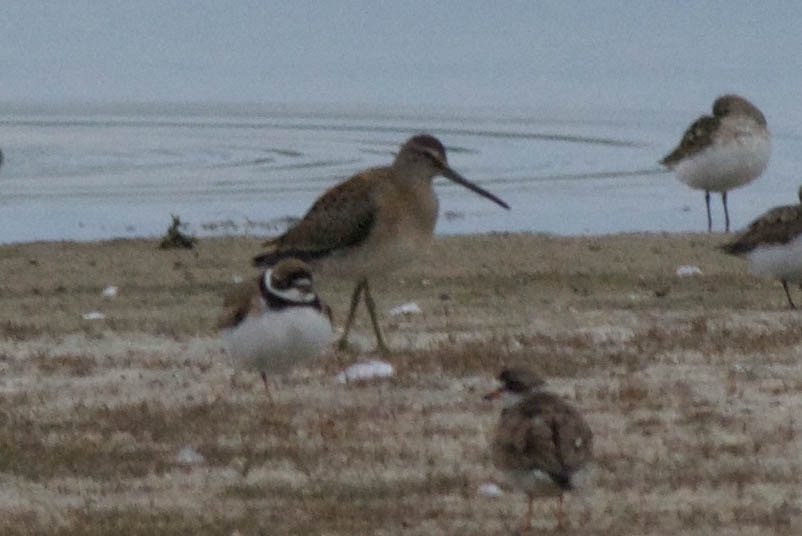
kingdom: Animalia
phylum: Chordata
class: Aves
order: Charadriiformes
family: Charadriidae
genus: Charadrius
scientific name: Charadrius semipalmatus
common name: Semipalmated plover
